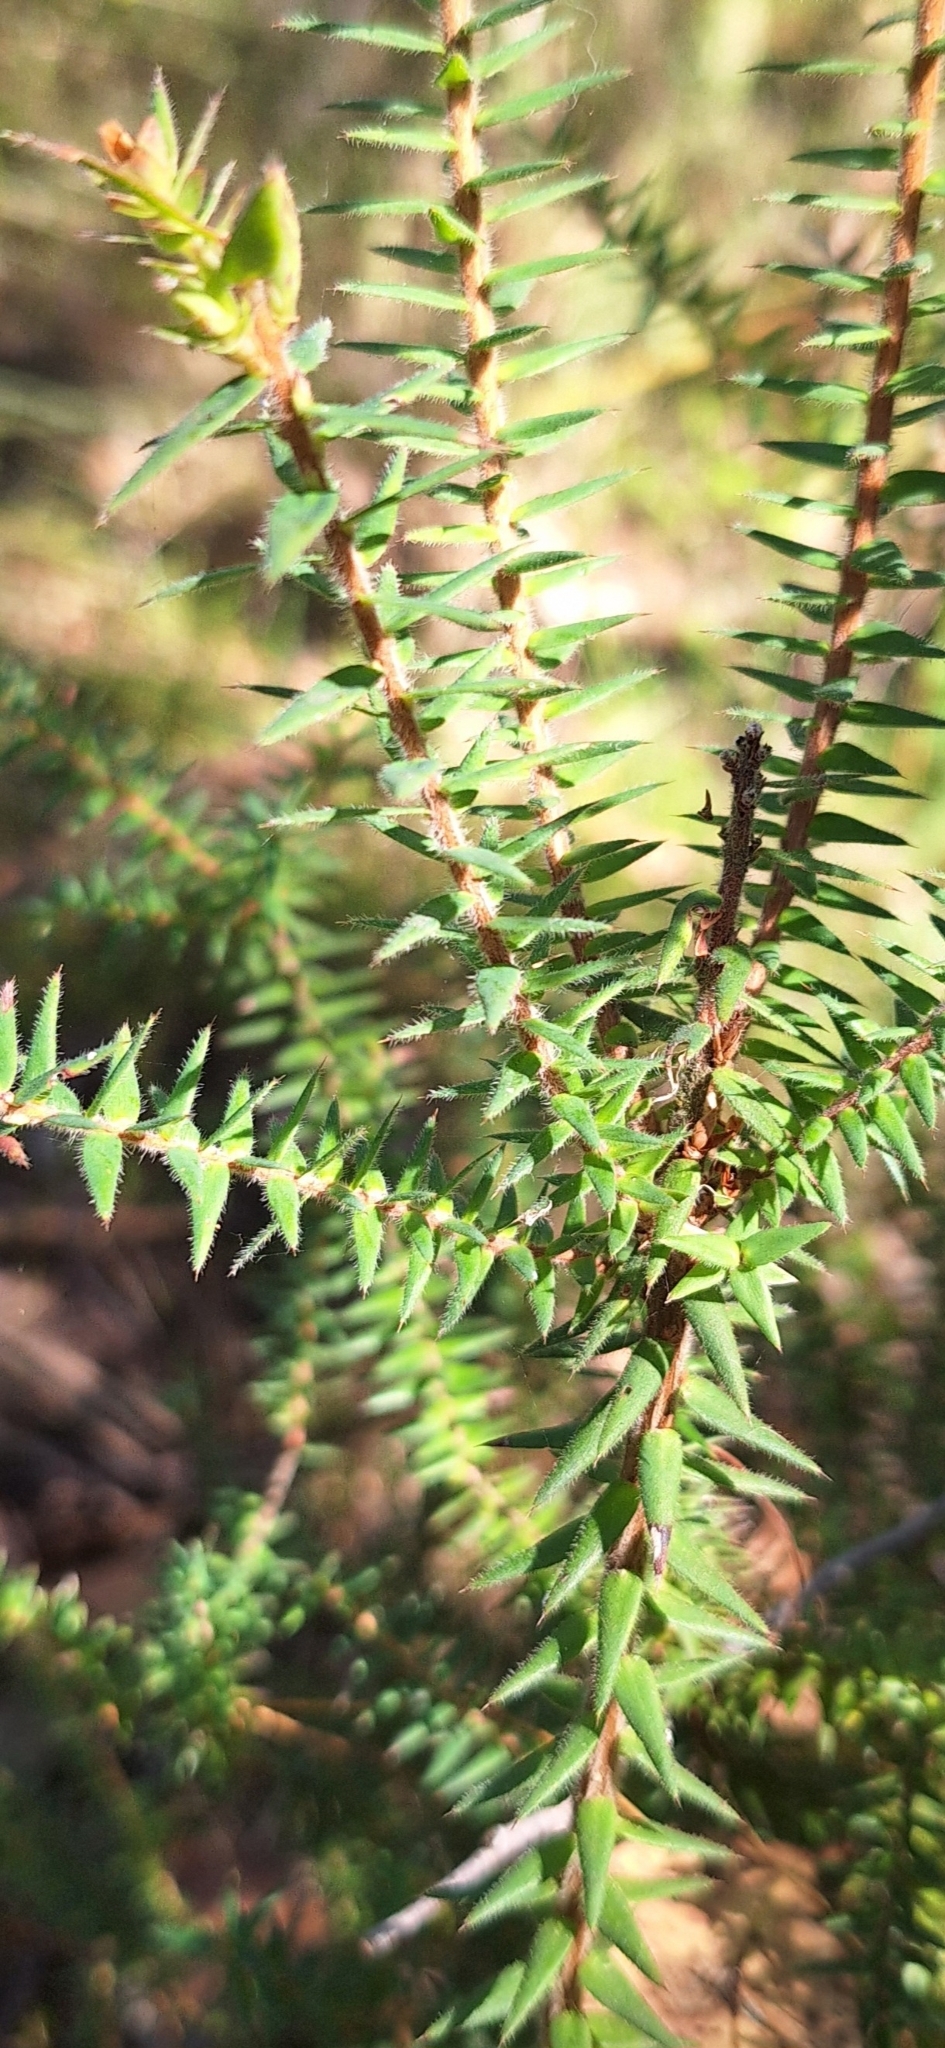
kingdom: Plantae
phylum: Tracheophyta
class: Magnoliopsida
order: Ericales
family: Ericaceae
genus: Acrotriche
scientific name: Acrotriche fasciculiflora
